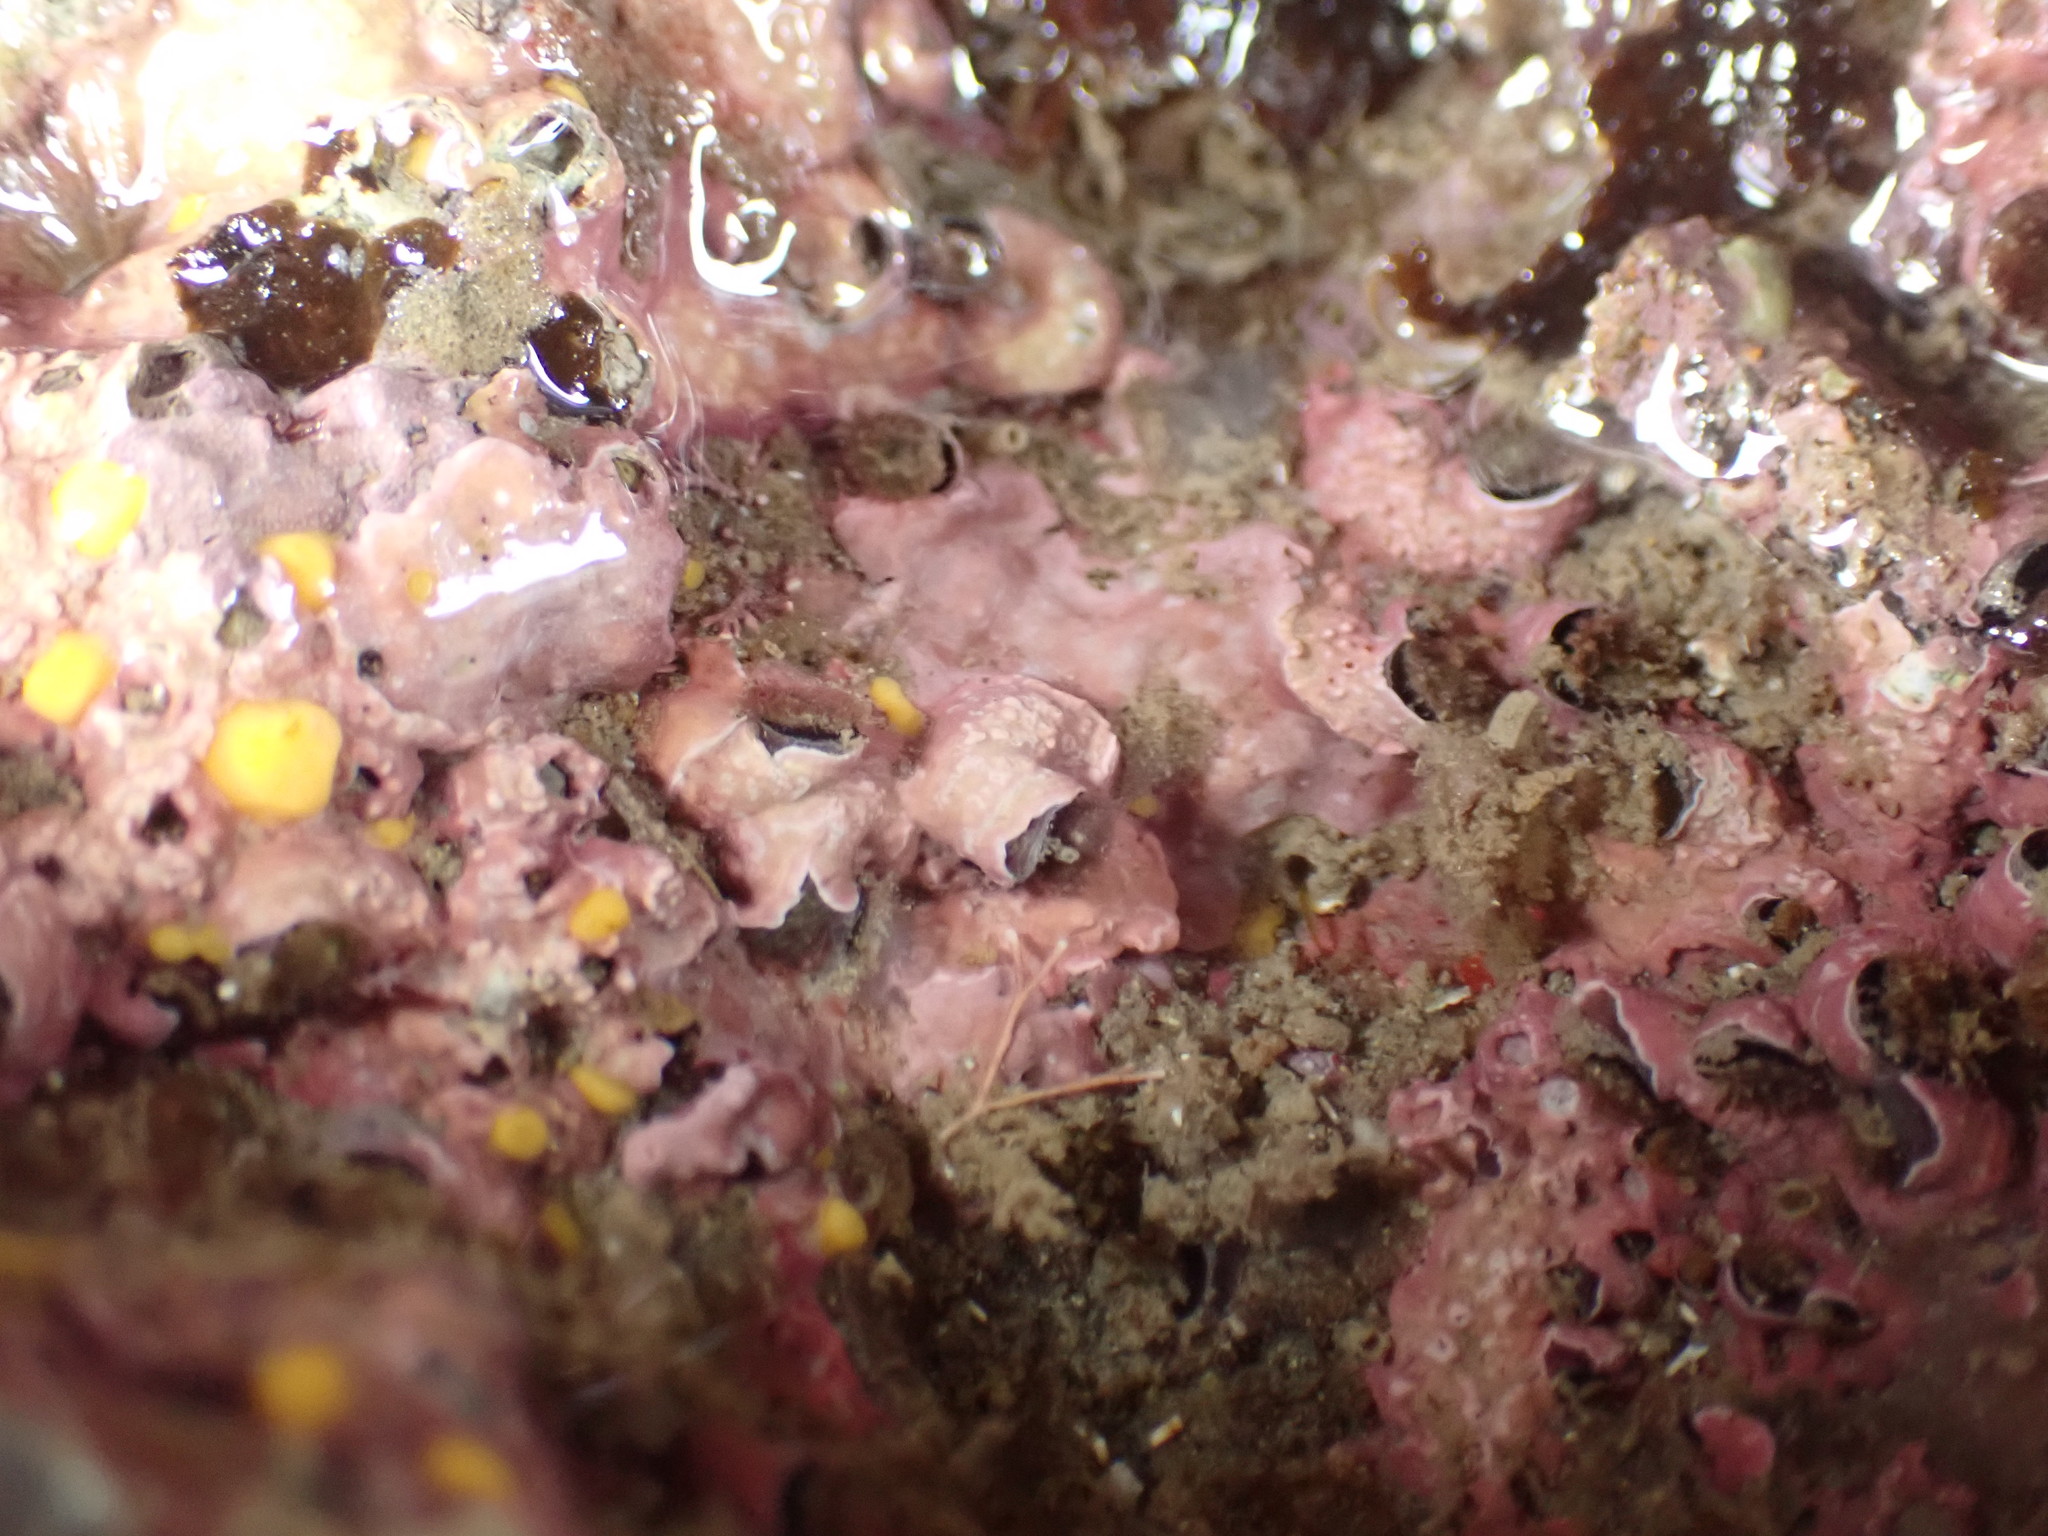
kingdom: Animalia
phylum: Mollusca
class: Gastropoda
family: Siliquariidae
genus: Stephopoma
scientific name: Stephopoma roseum
